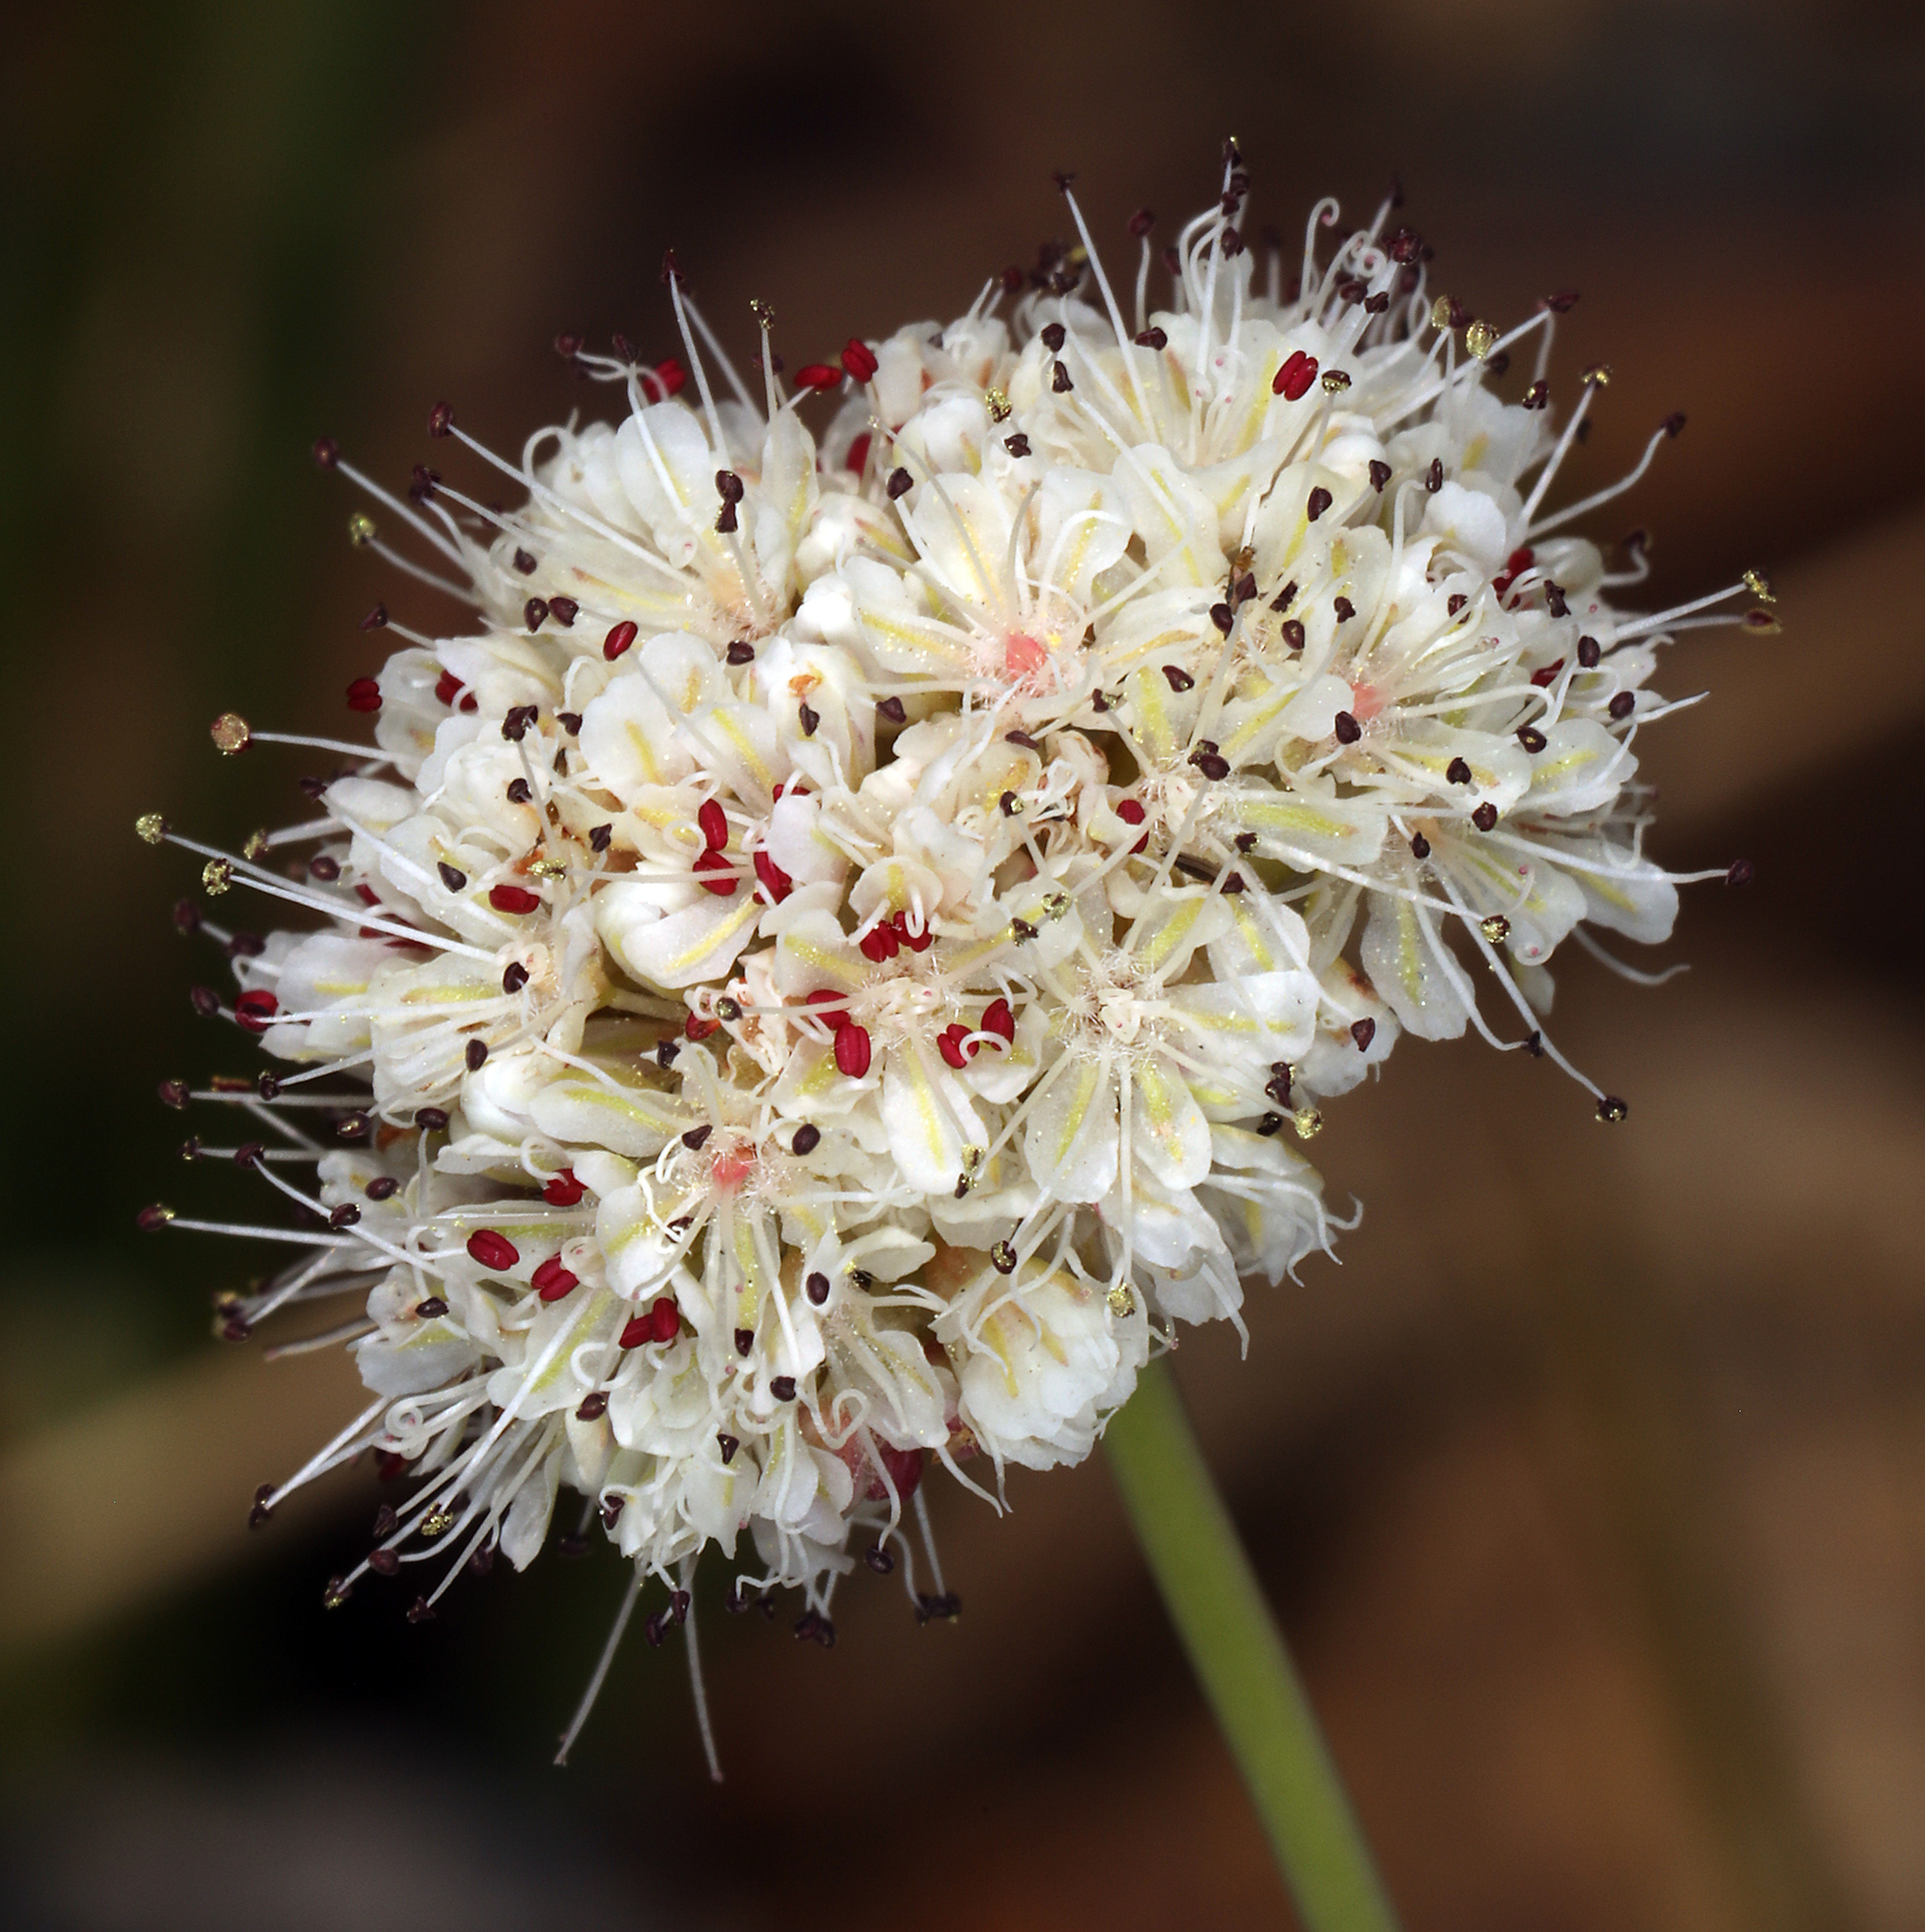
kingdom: Plantae
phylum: Tracheophyta
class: Magnoliopsida
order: Caryophyllales
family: Polygonaceae
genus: Eriogonum
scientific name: Eriogonum nudum
